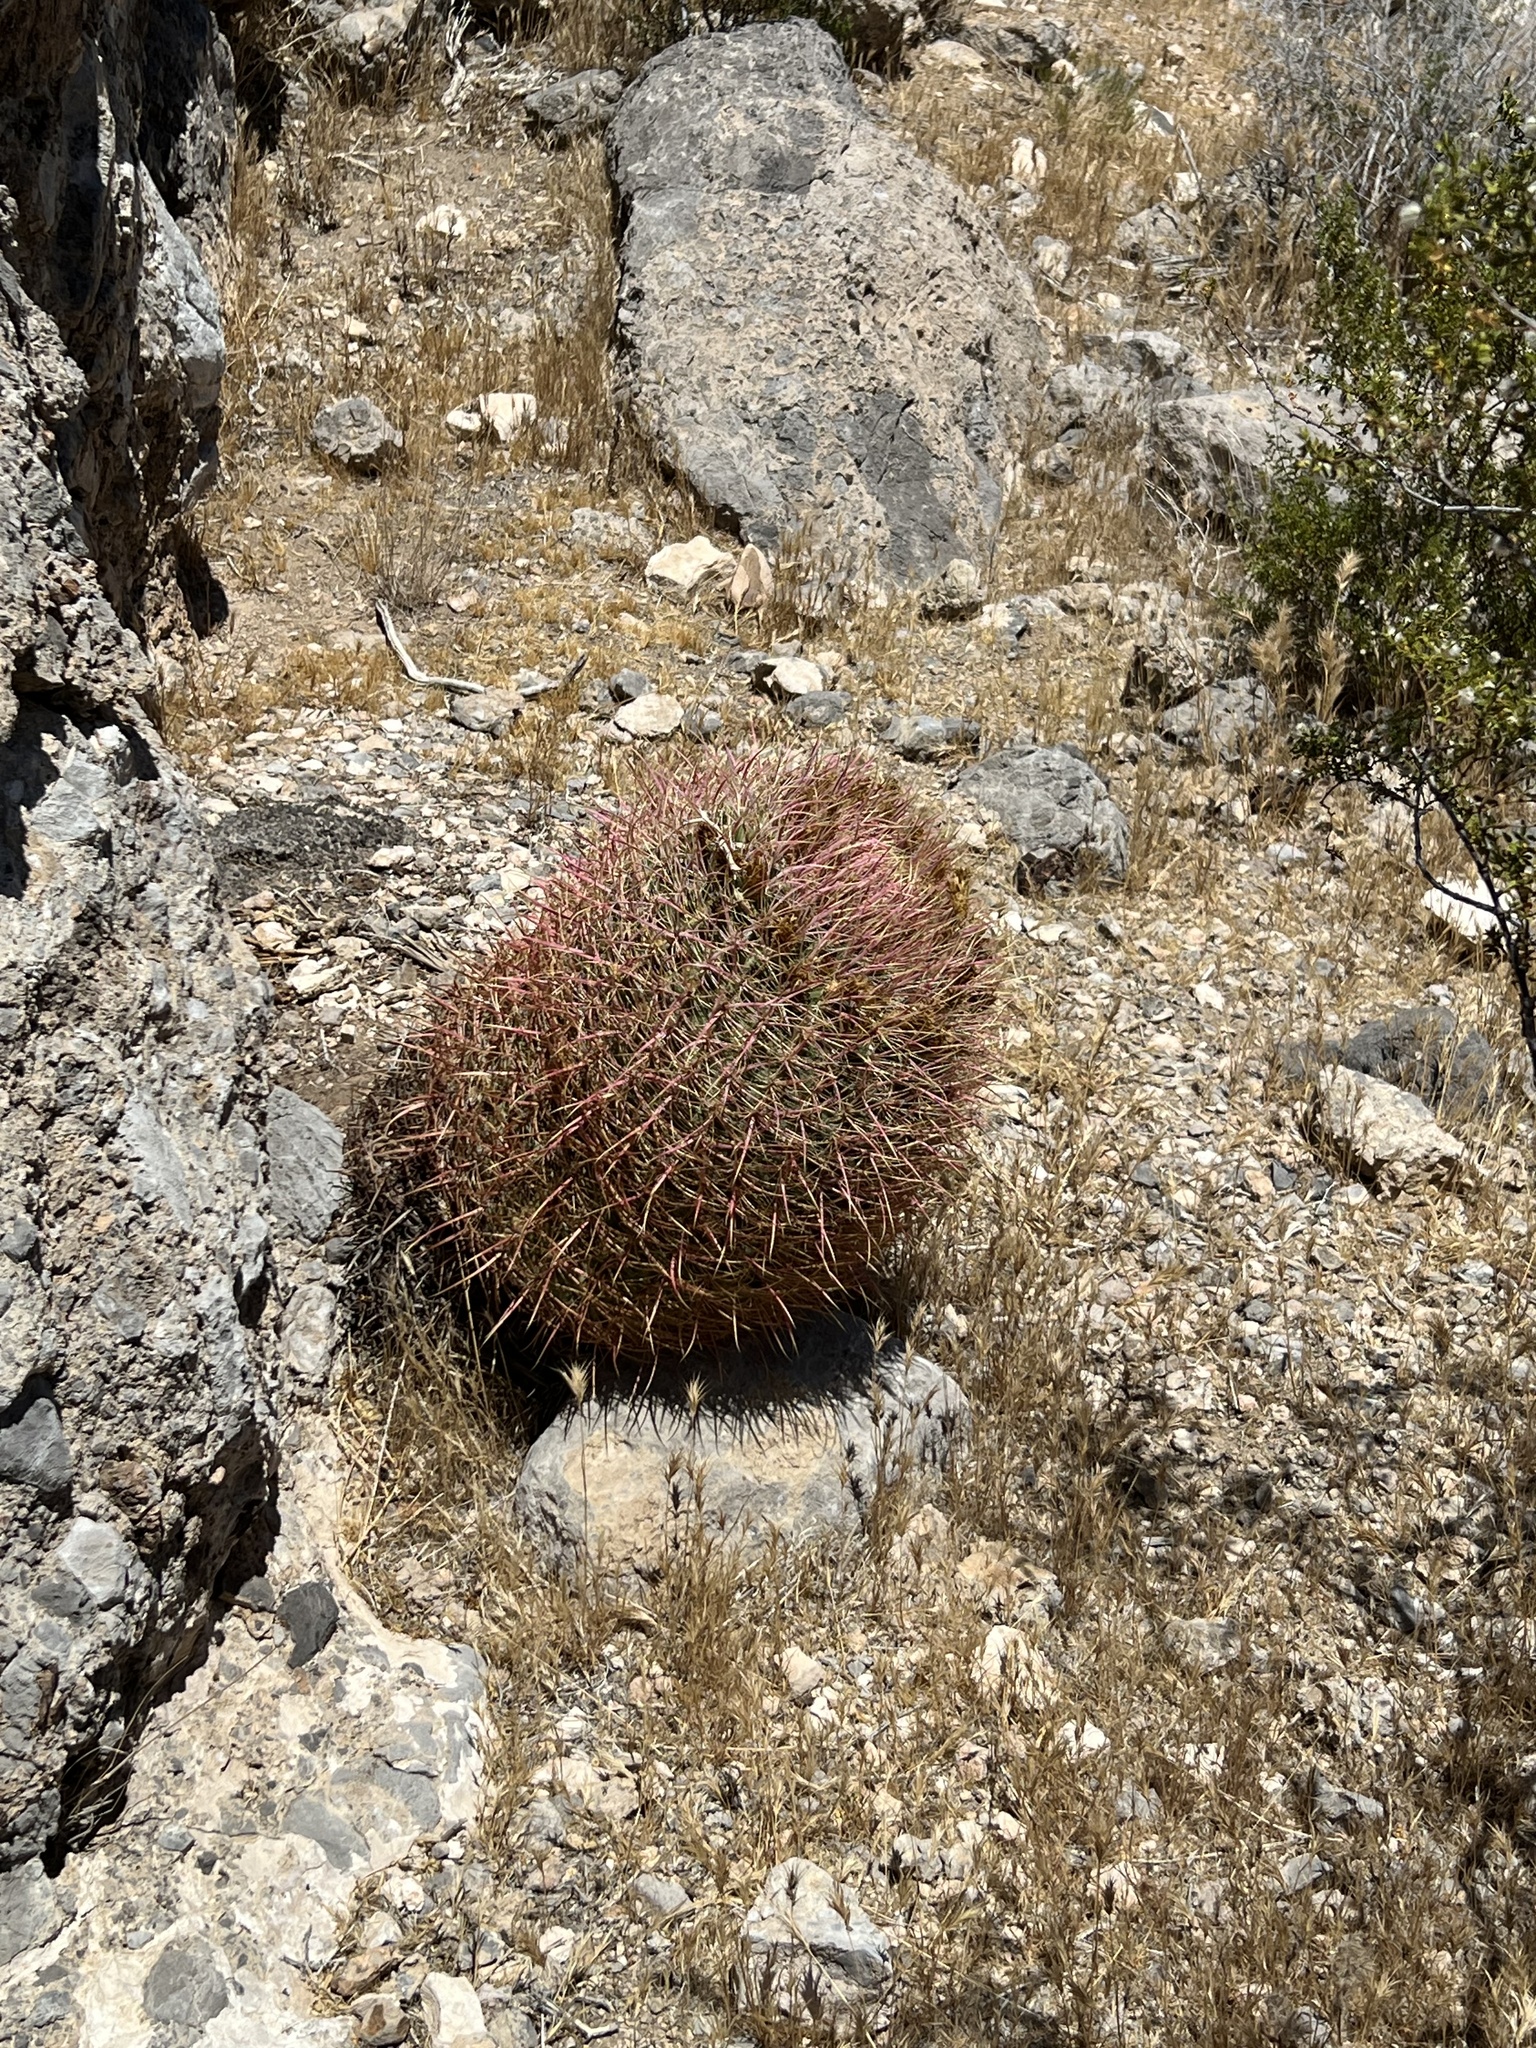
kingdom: Plantae
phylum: Tracheophyta
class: Magnoliopsida
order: Caryophyllales
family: Cactaceae
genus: Ferocactus
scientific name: Ferocactus cylindraceus
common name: California barrel cactus
